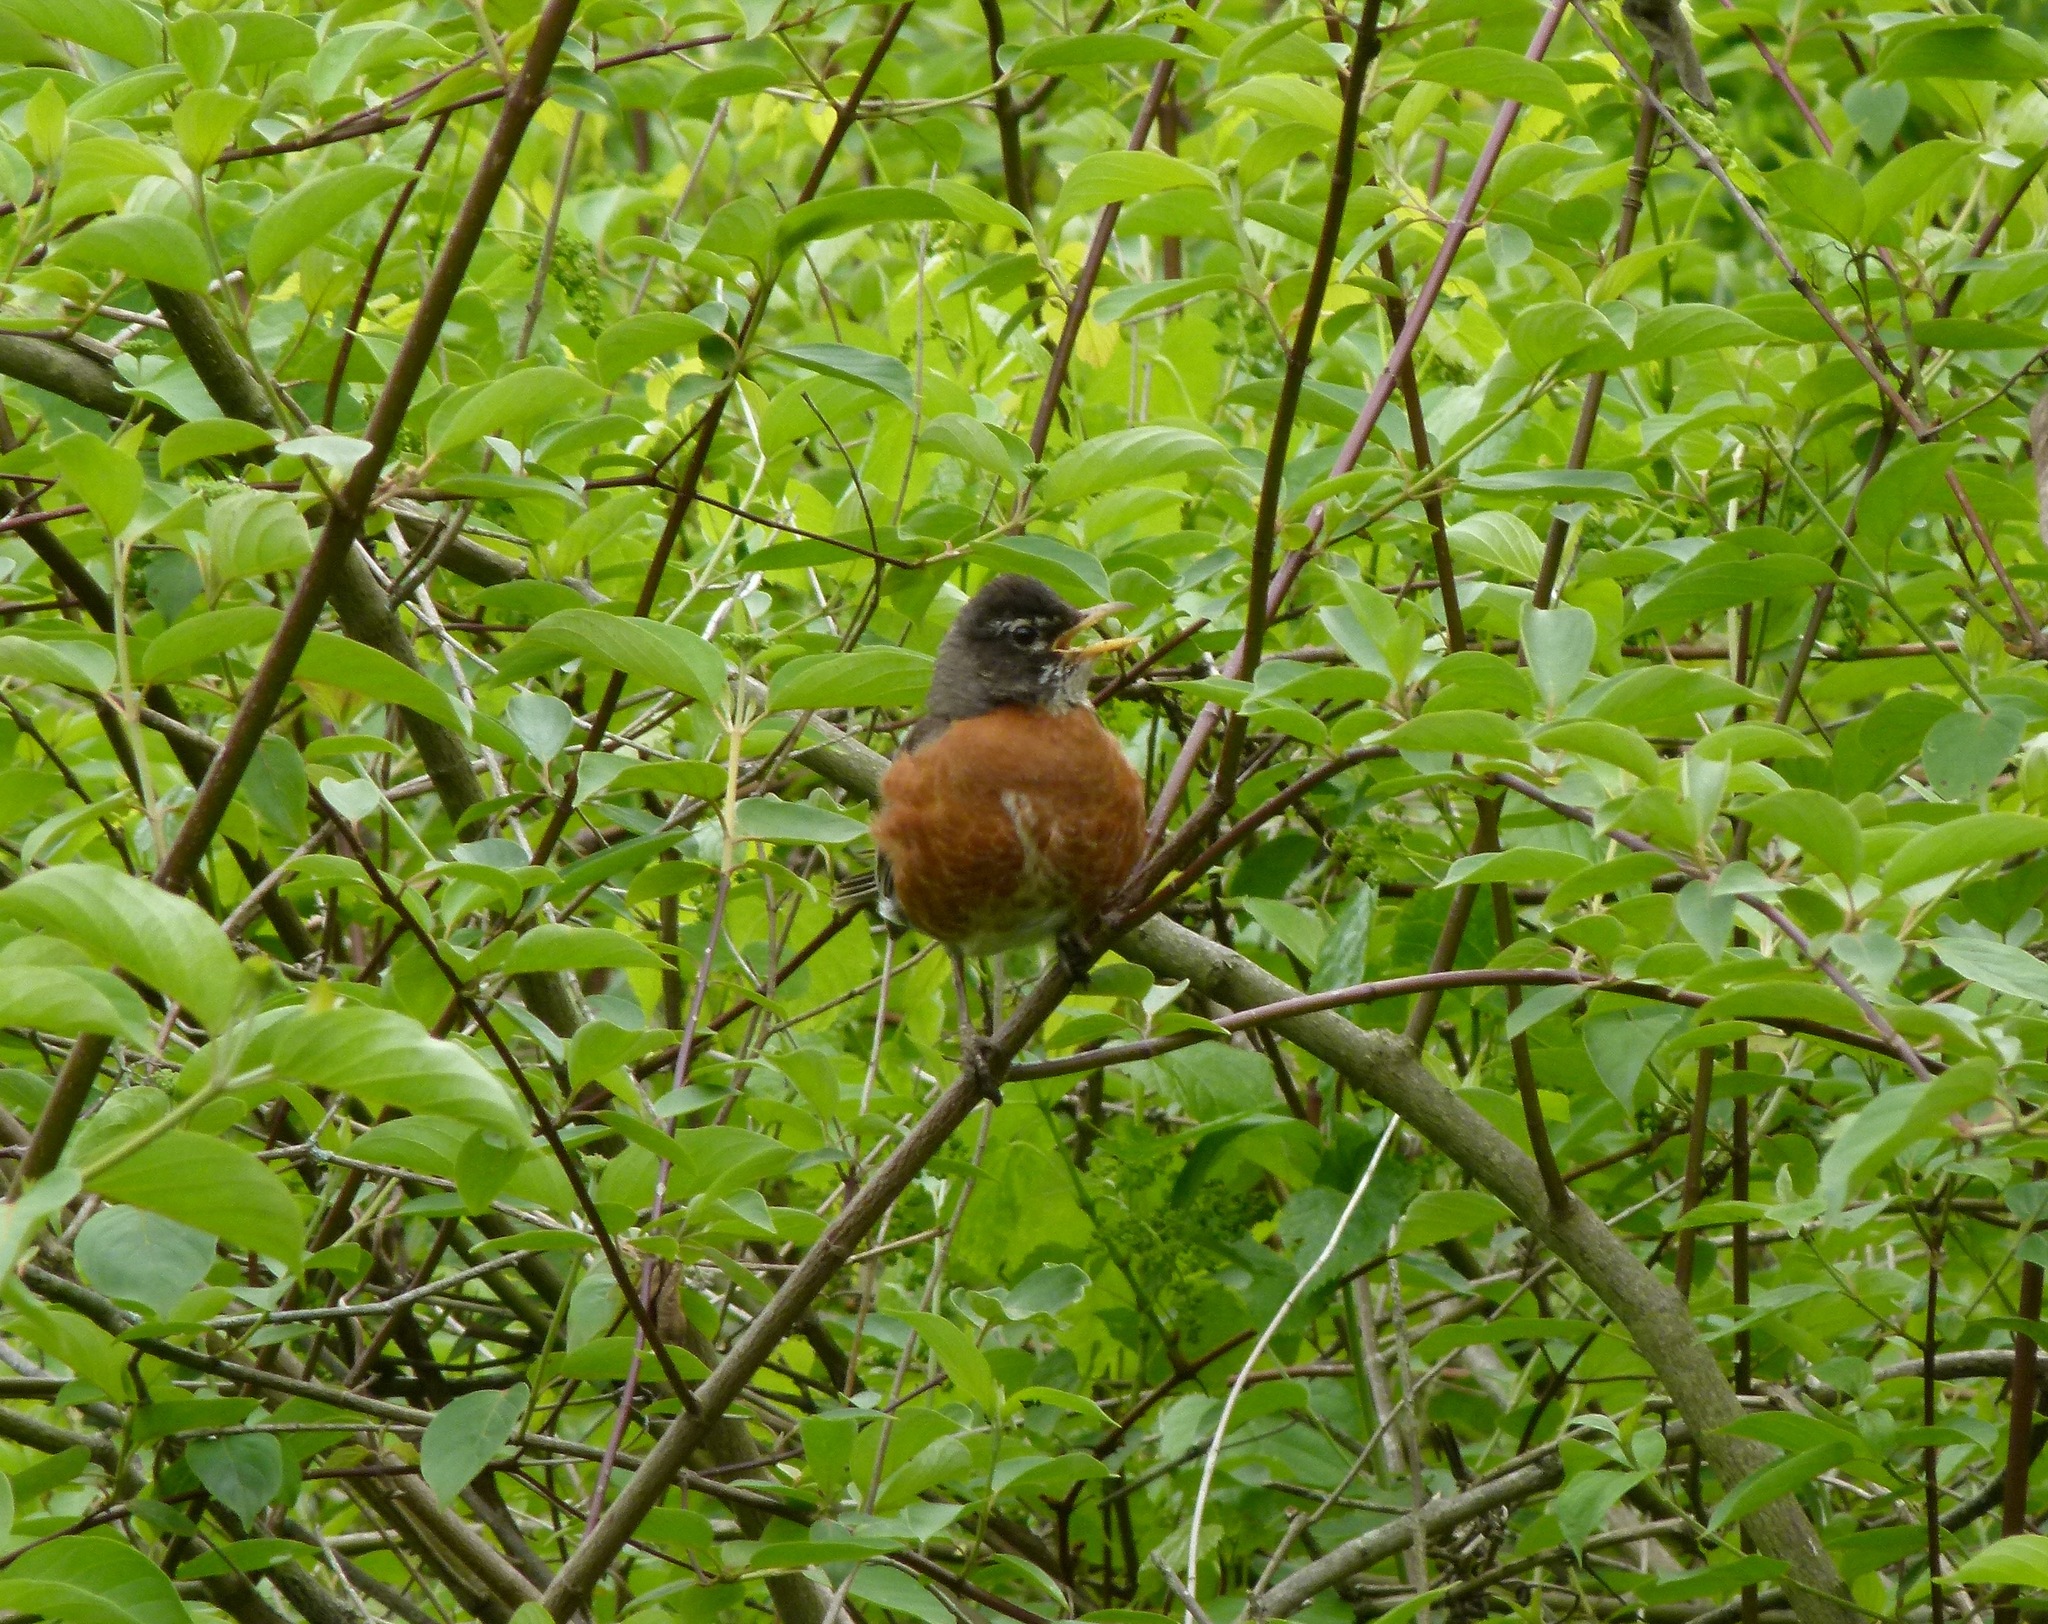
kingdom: Animalia
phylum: Chordata
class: Aves
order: Passeriformes
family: Turdidae
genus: Turdus
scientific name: Turdus migratorius
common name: American robin
